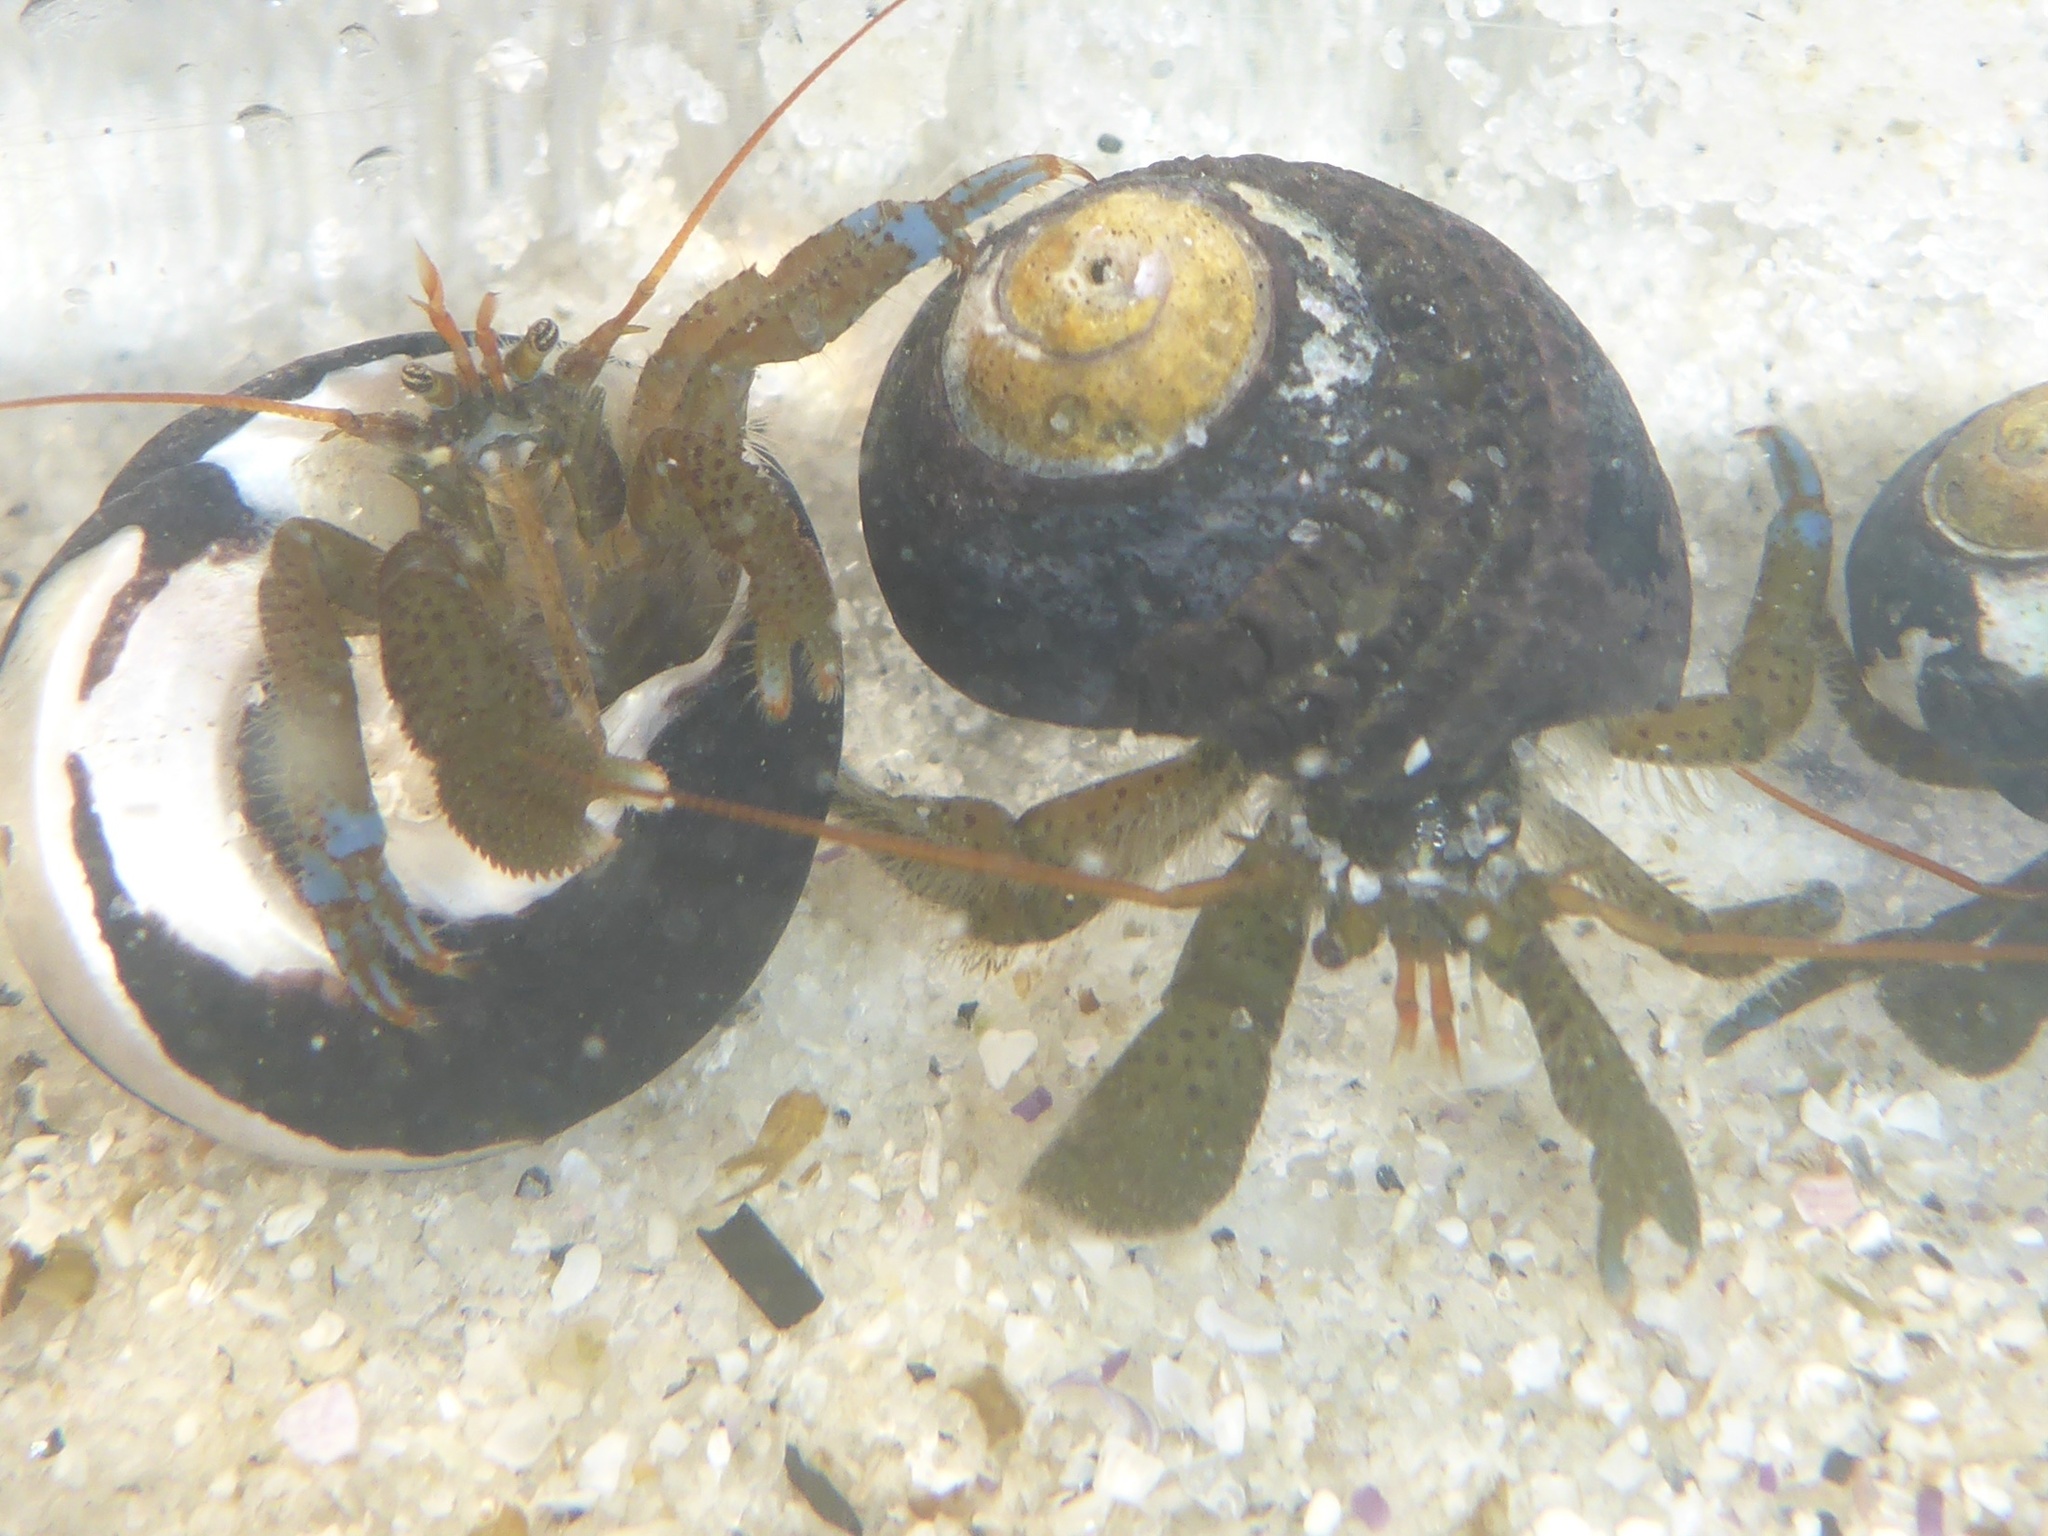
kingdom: Animalia
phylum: Arthropoda
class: Malacostraca
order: Decapoda
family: Paguridae
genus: Pagurus
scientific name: Pagurus samuelis
